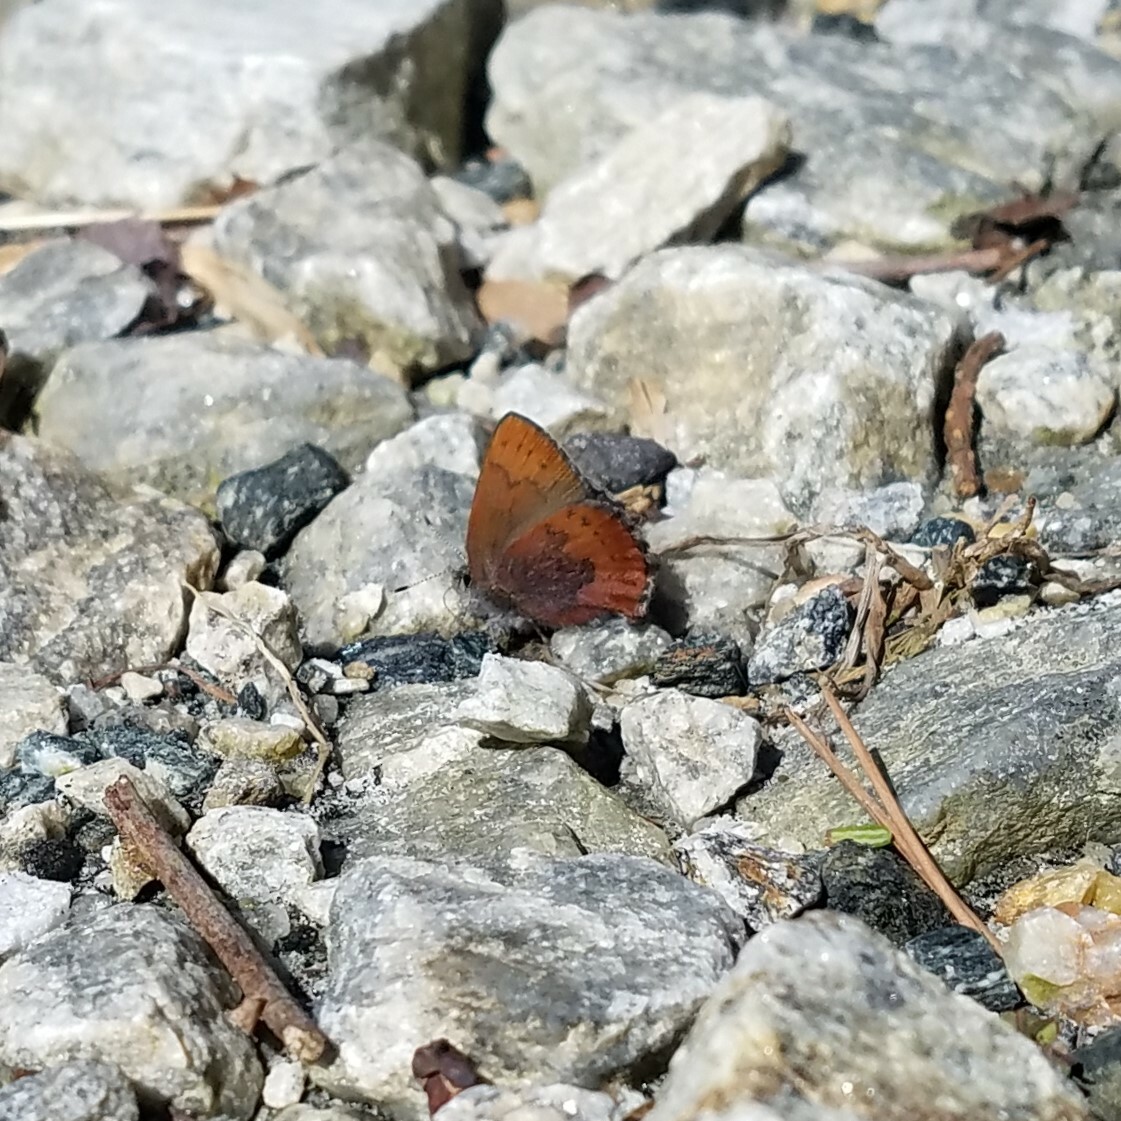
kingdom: Animalia
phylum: Arthropoda
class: Insecta
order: Lepidoptera
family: Lycaenidae
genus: Incisalia
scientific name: Incisalia irioides
